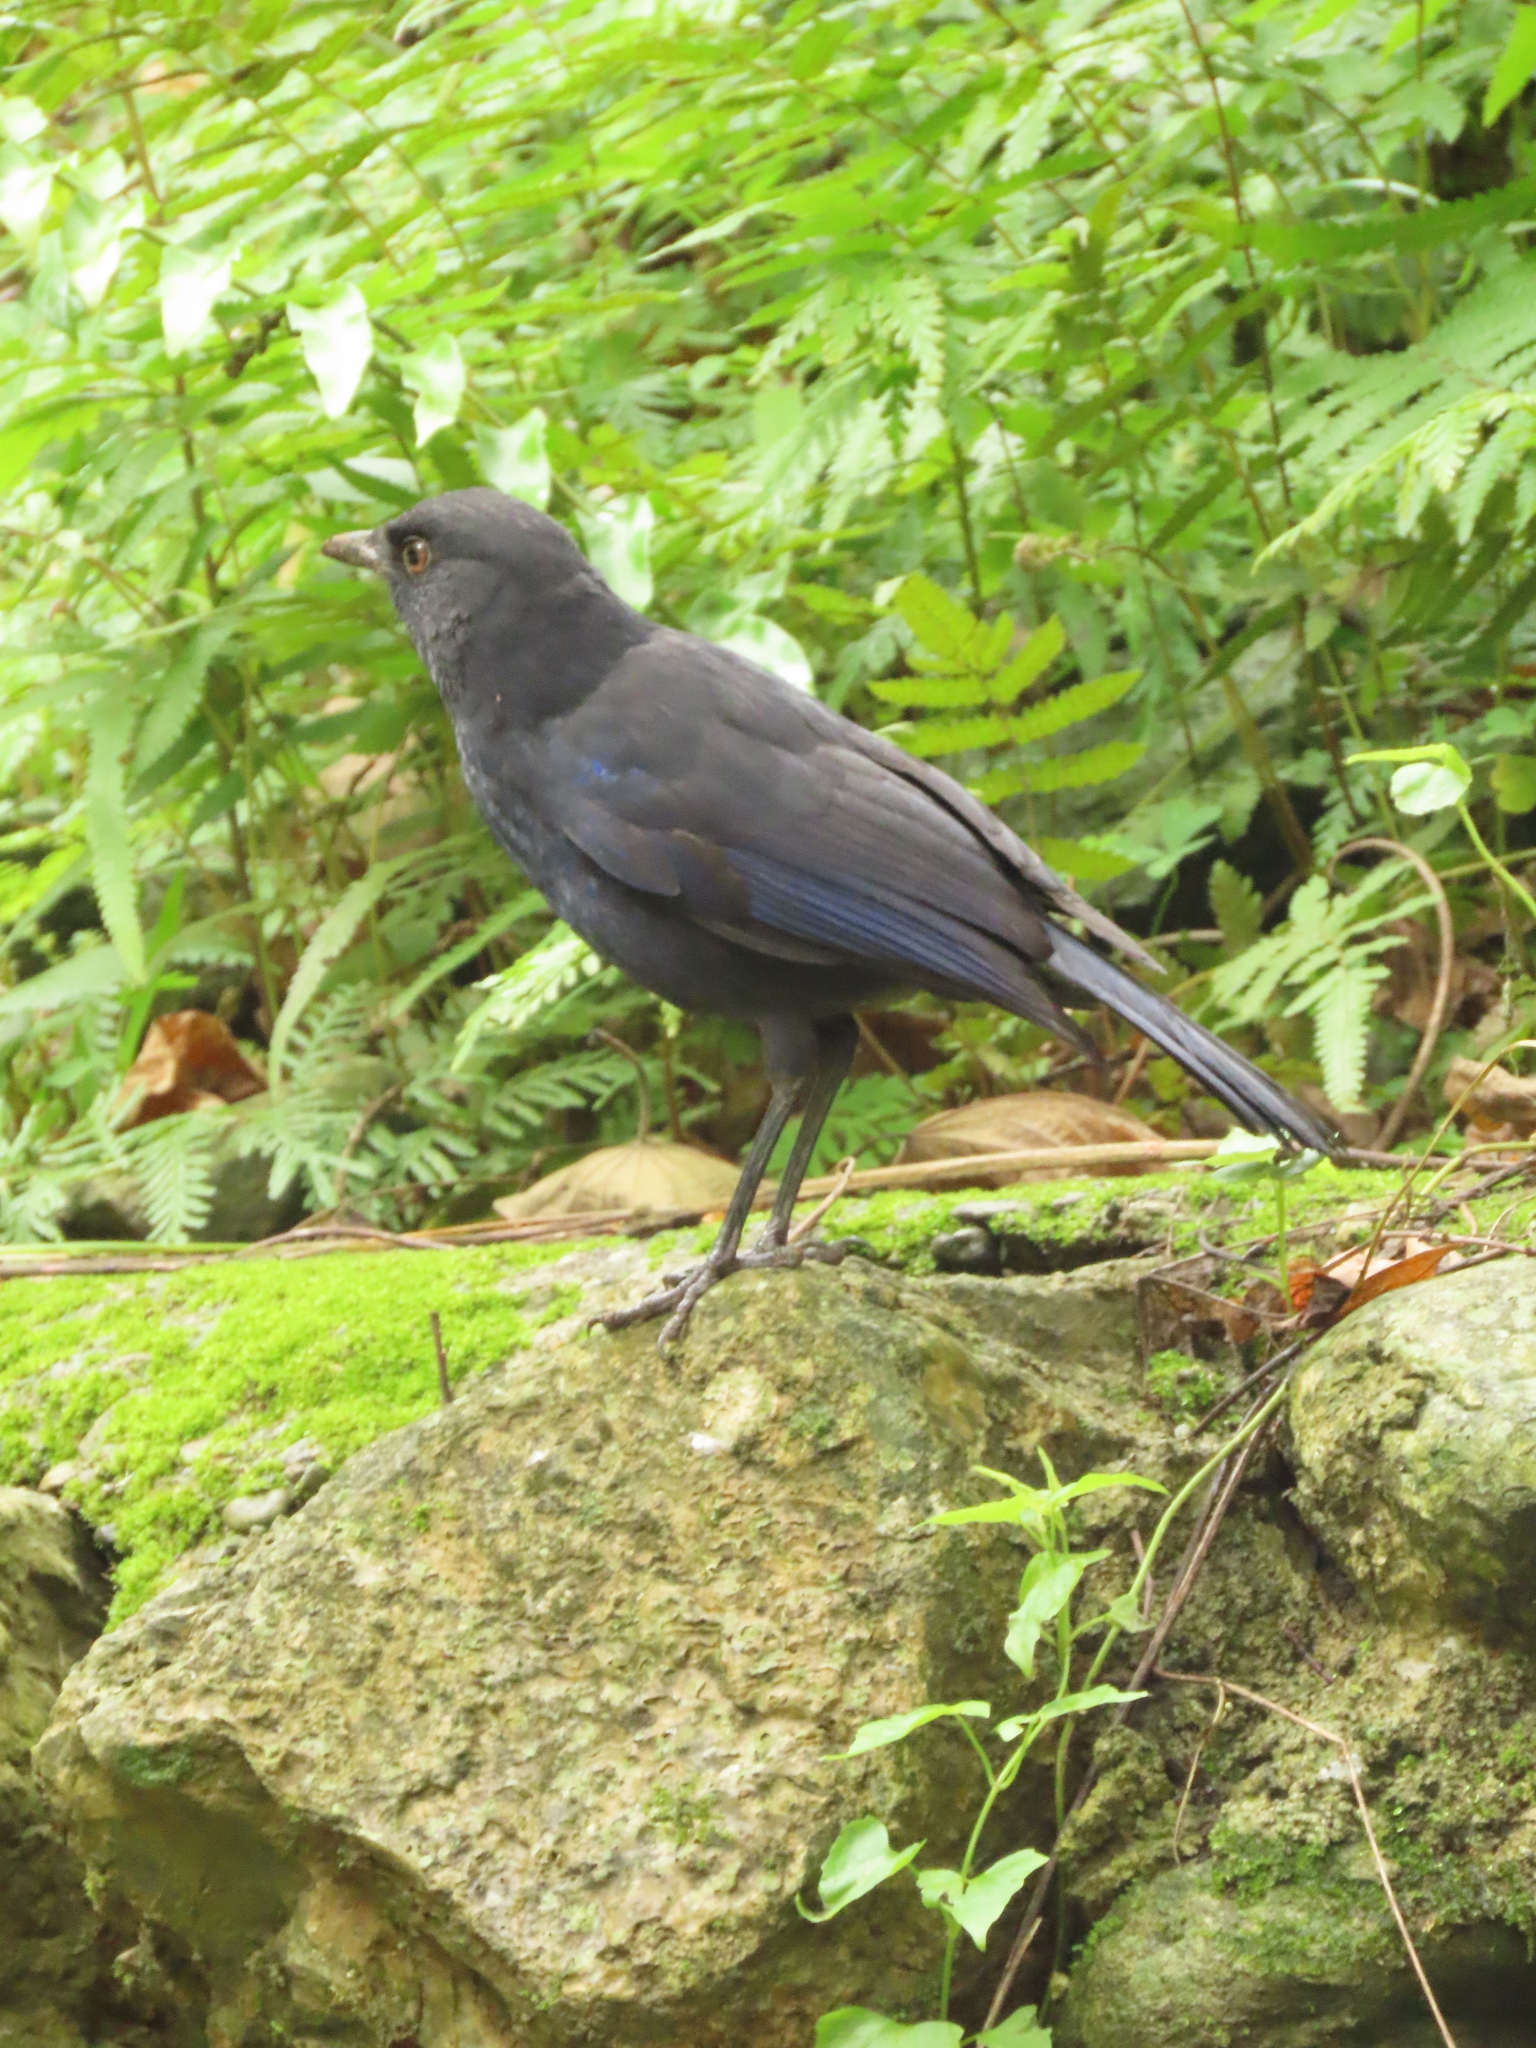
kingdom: Animalia
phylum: Chordata
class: Aves
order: Passeriformes
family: Muscicapidae
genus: Myophonus
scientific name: Myophonus insularis
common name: Taiwan whistling-thrush
